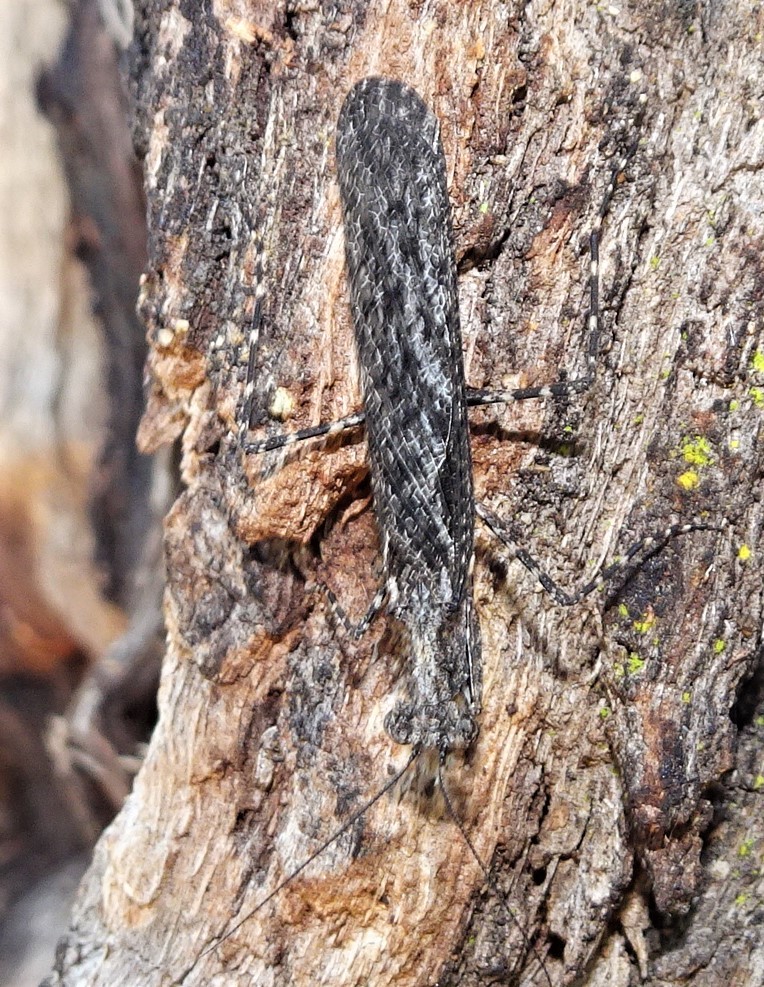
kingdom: Animalia
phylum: Arthropoda
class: Insecta
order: Mantodea
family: Nanomantidae
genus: Metoxypilus
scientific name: Metoxypilus lobifrons
